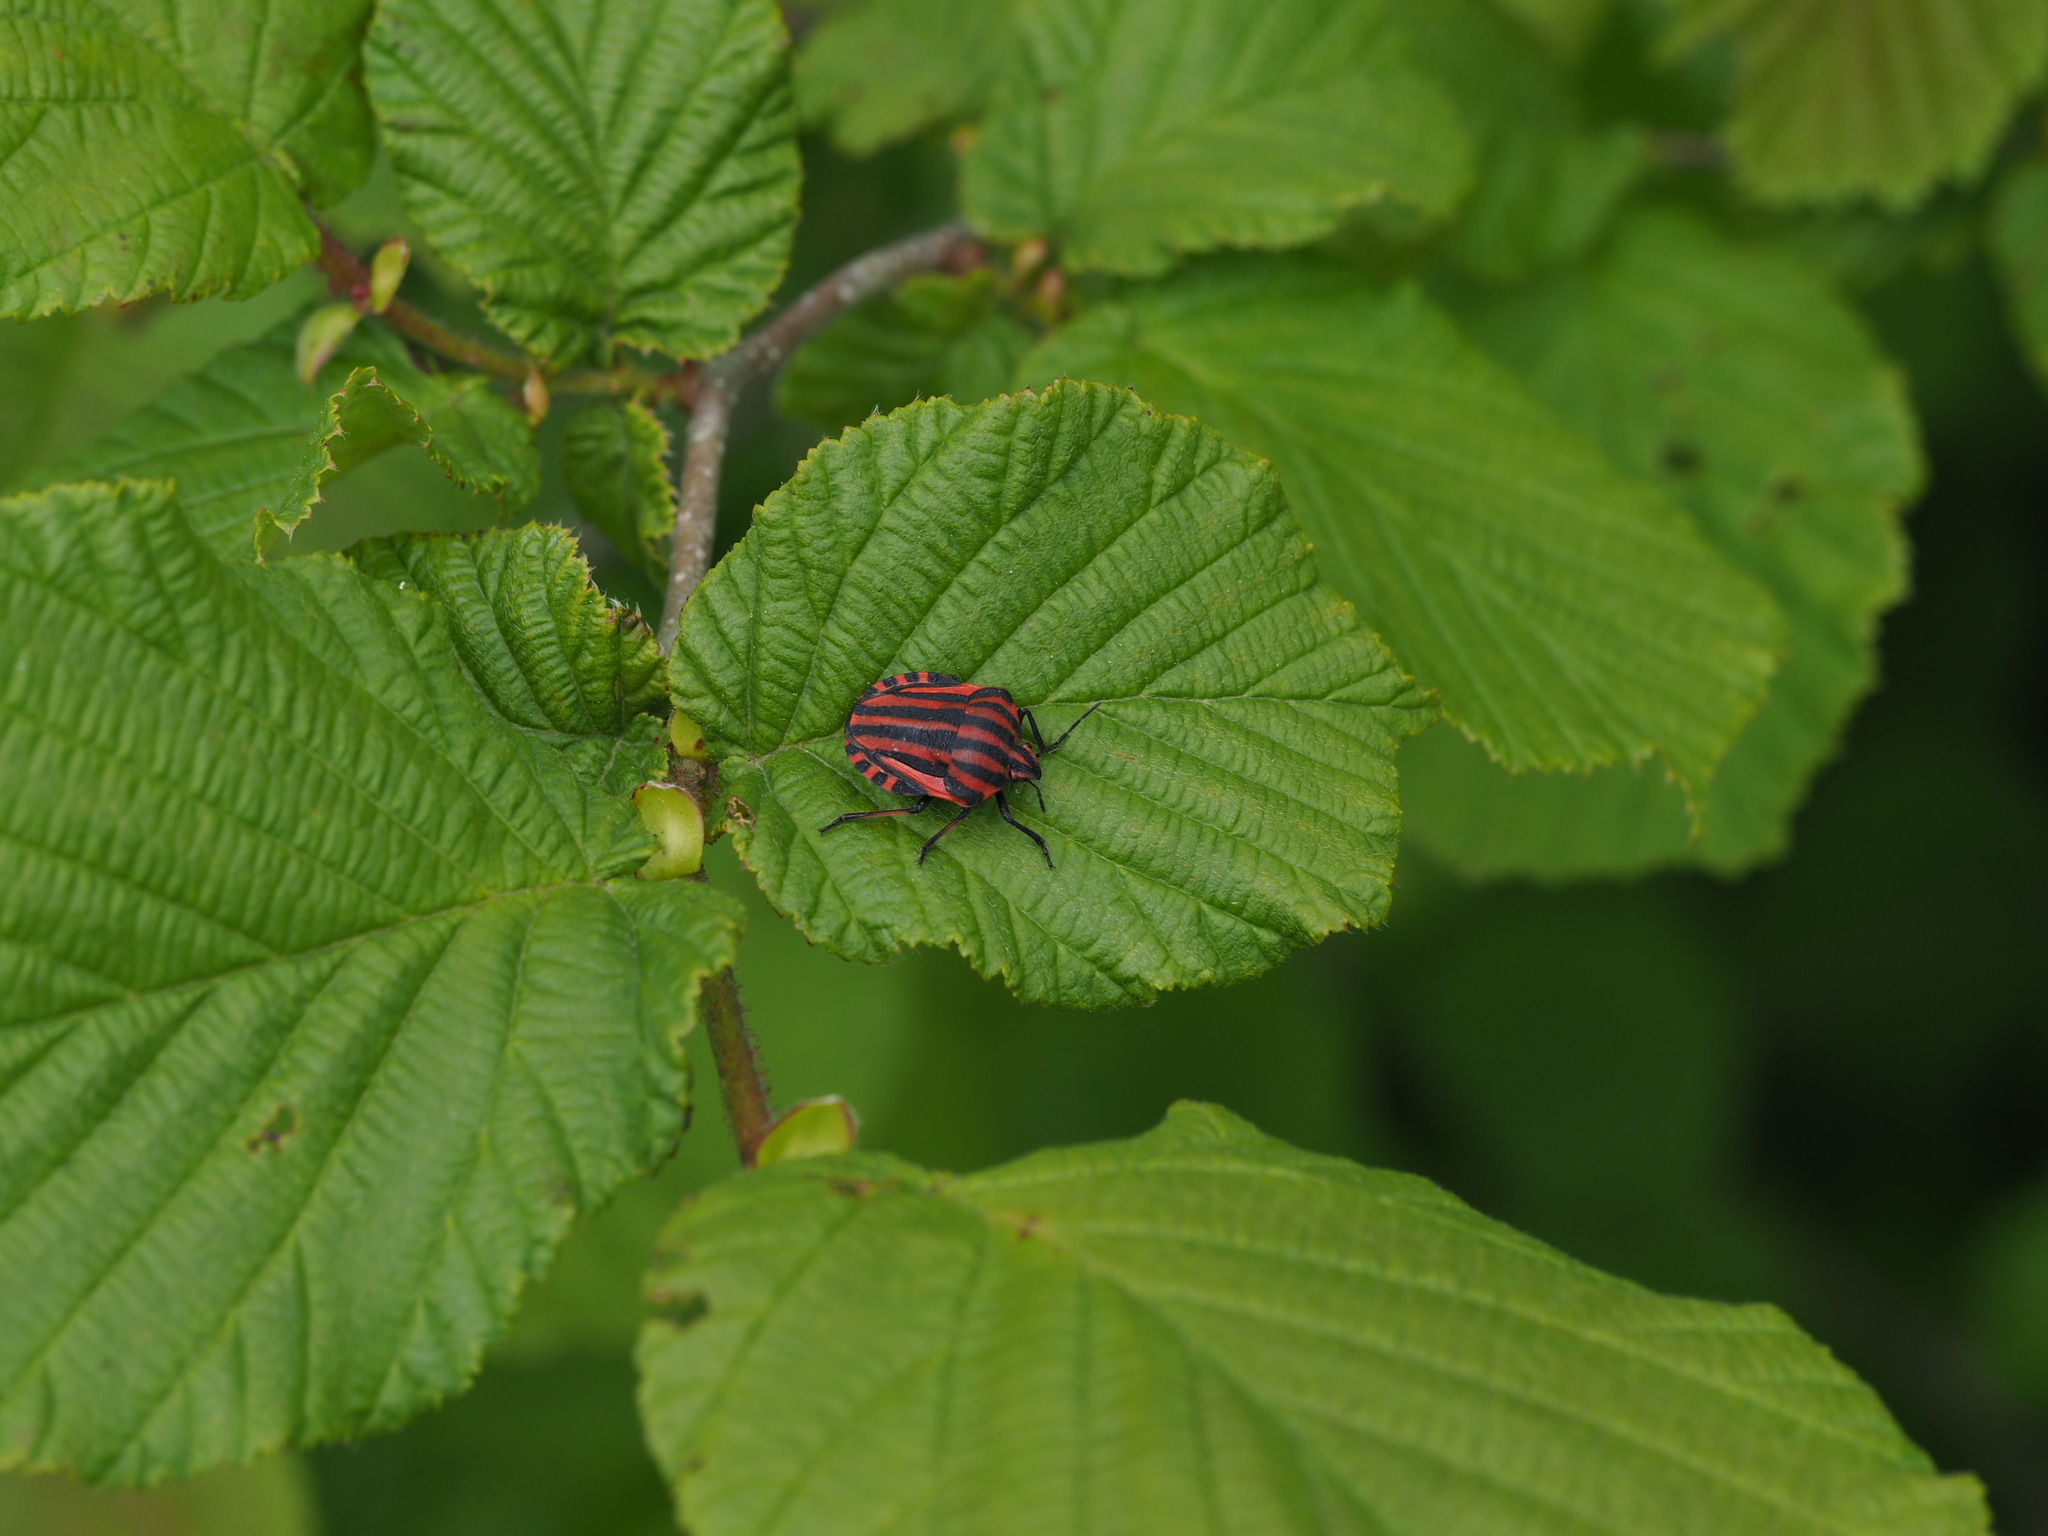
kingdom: Animalia
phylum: Arthropoda
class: Insecta
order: Hemiptera
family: Pentatomidae
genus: Graphosoma
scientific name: Graphosoma italicum
